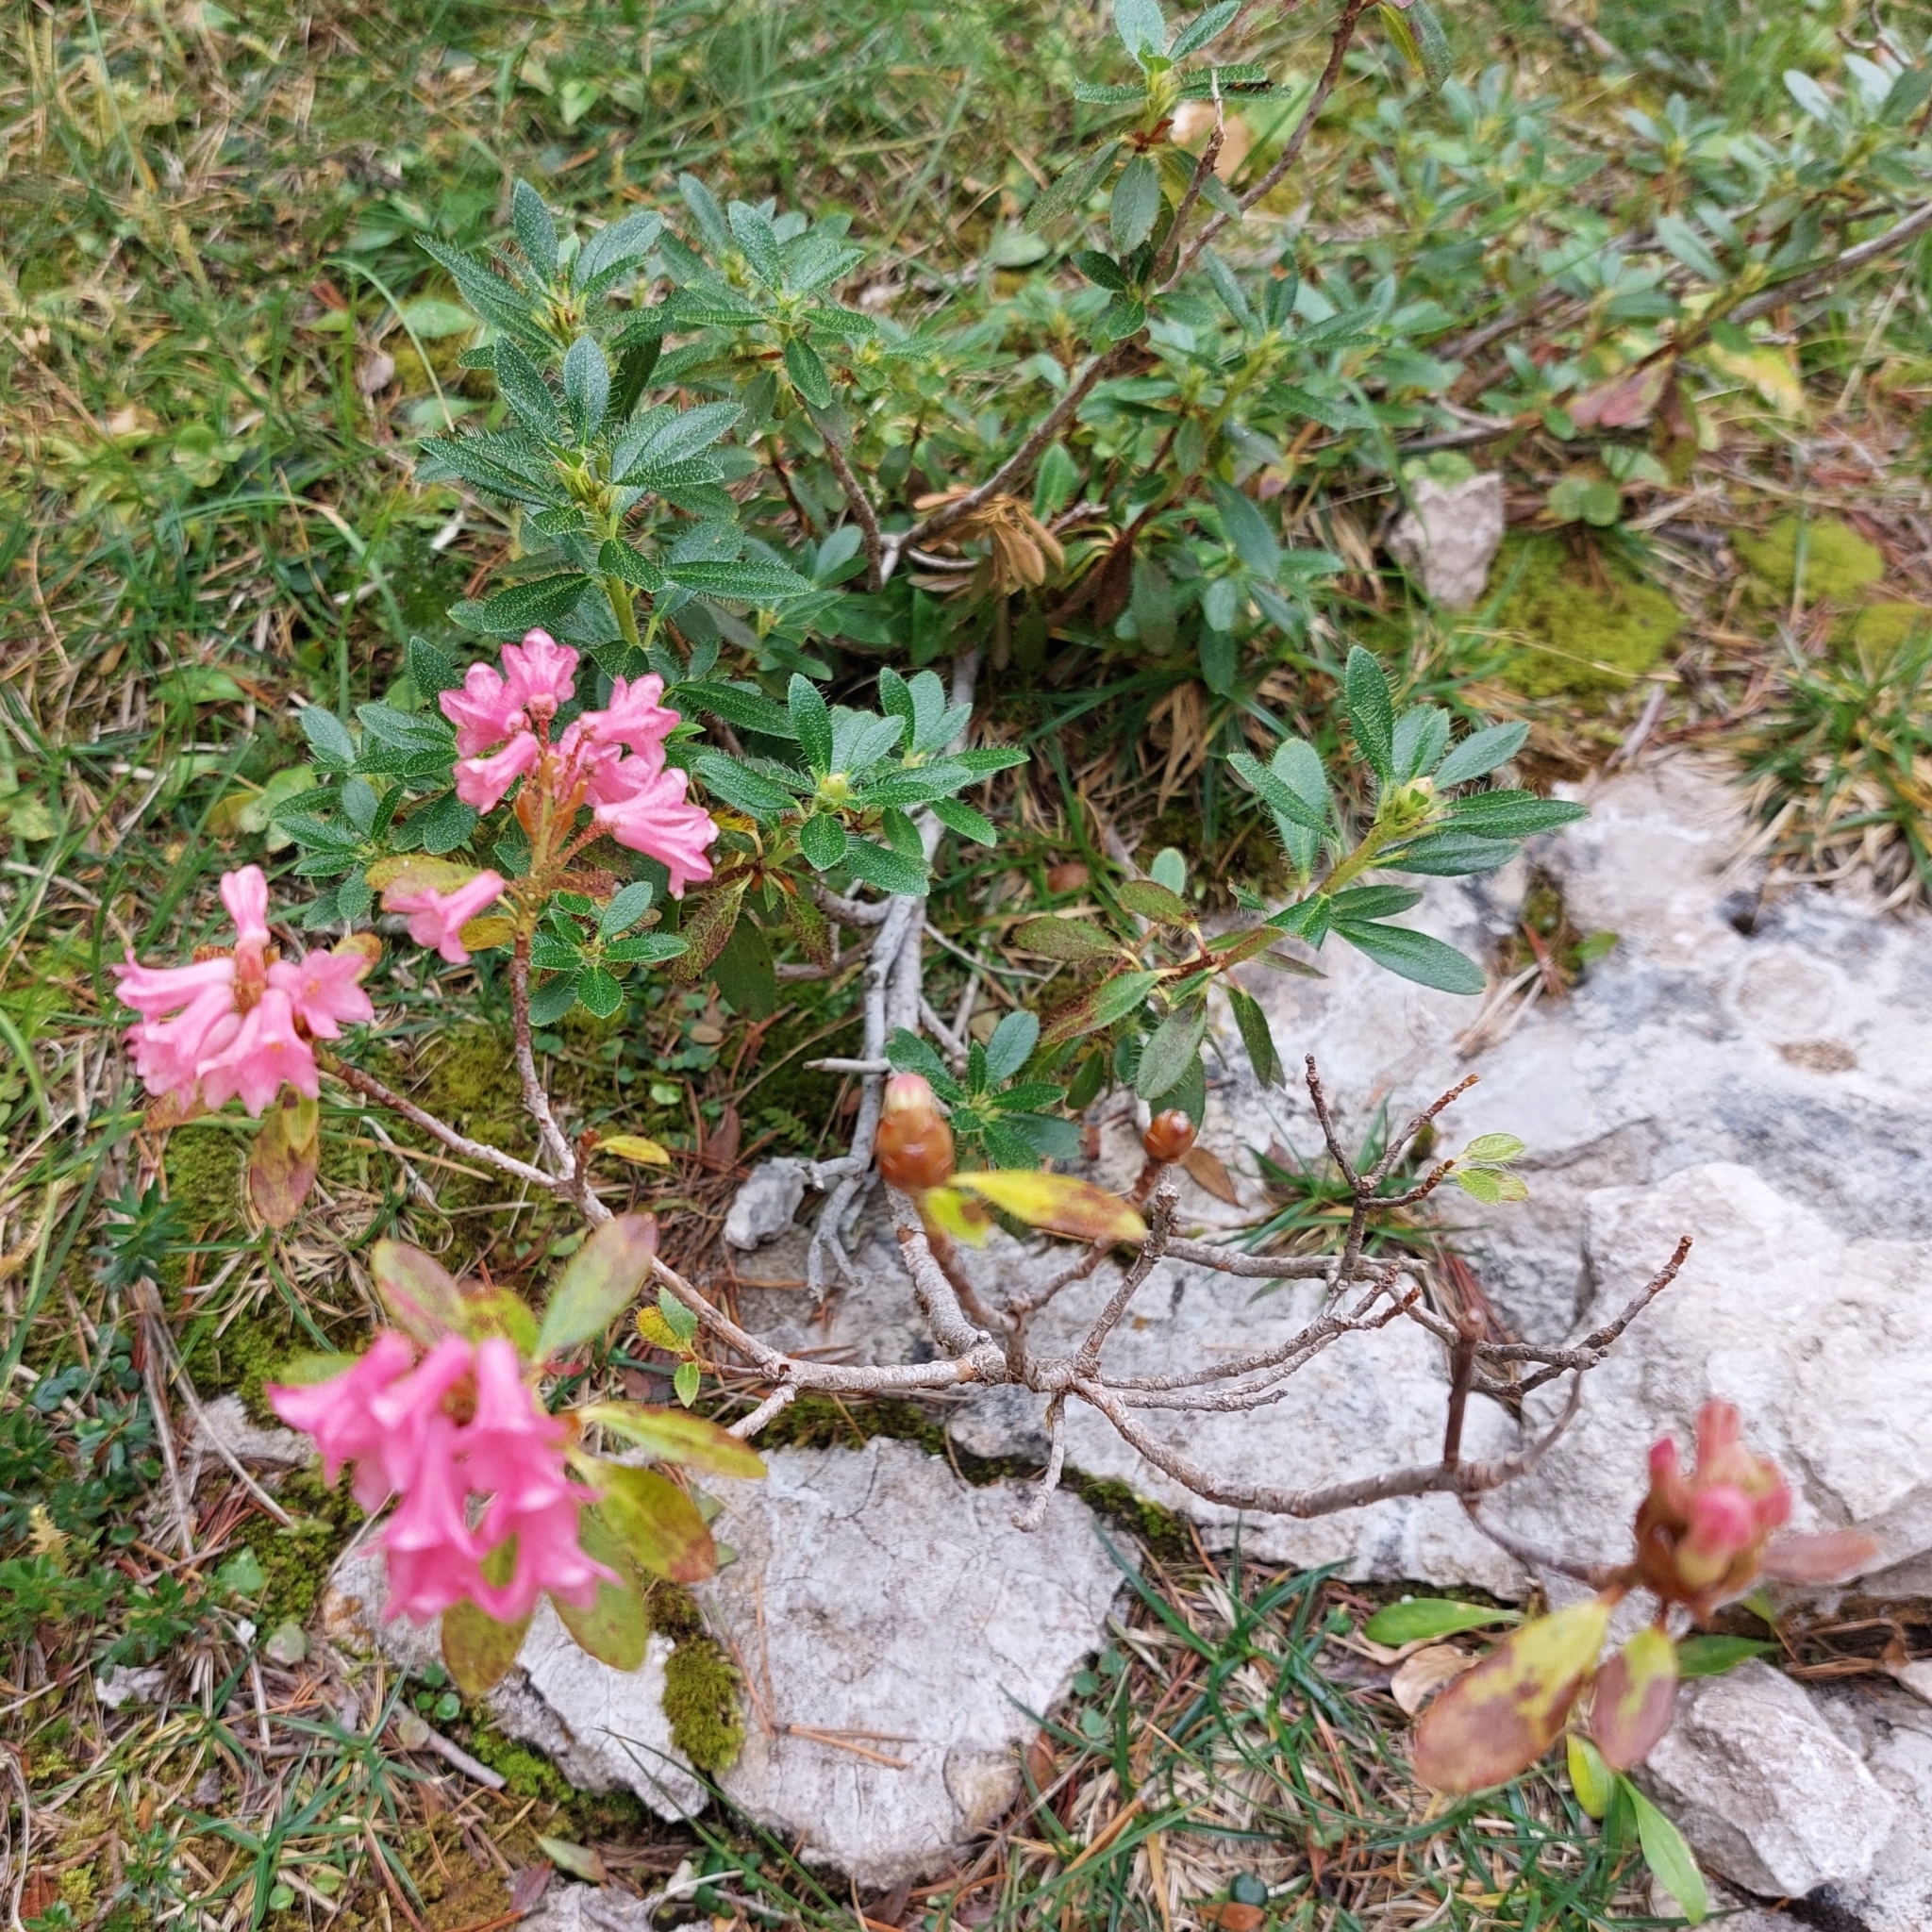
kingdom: Plantae
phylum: Tracheophyta
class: Magnoliopsida
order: Ericales
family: Ericaceae
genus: Rhododendron
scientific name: Rhododendron hirsutum
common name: Hairy alpenrose
